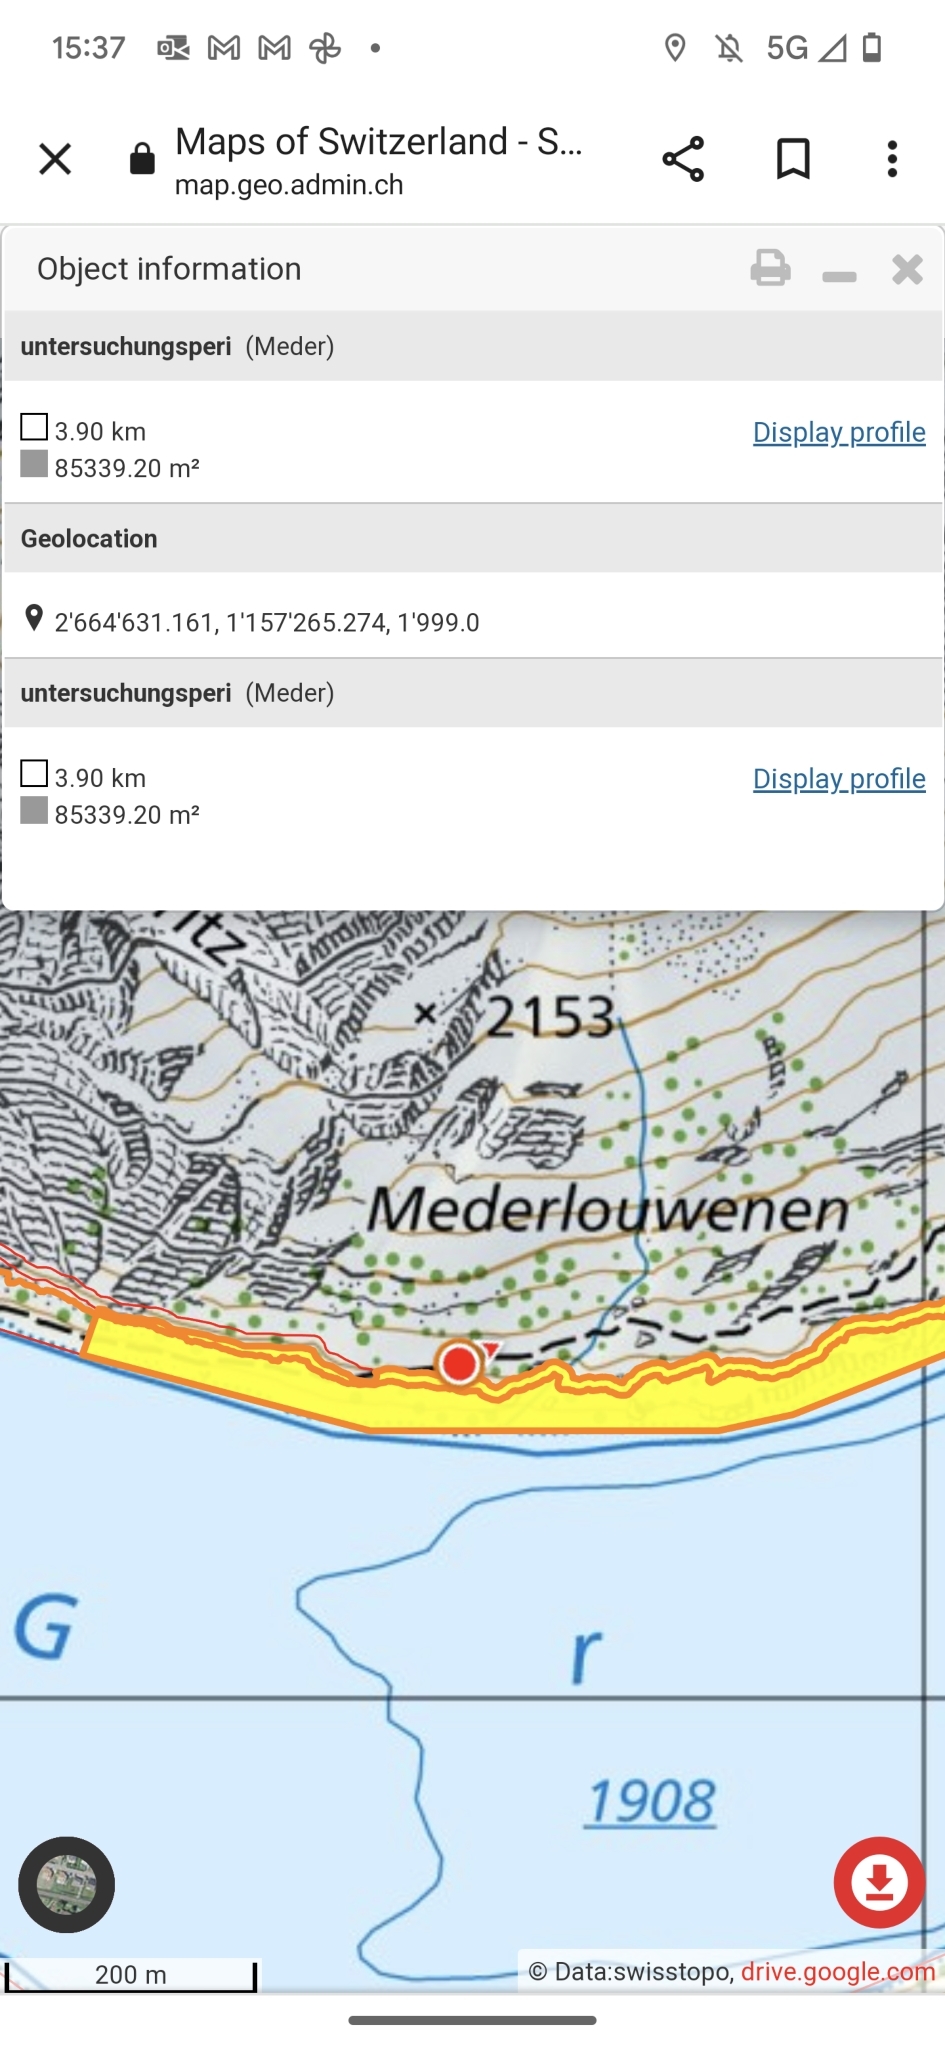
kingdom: Animalia
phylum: Arthropoda
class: Insecta
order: Hymenoptera
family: Formicidae
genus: Formica
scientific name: Formica
